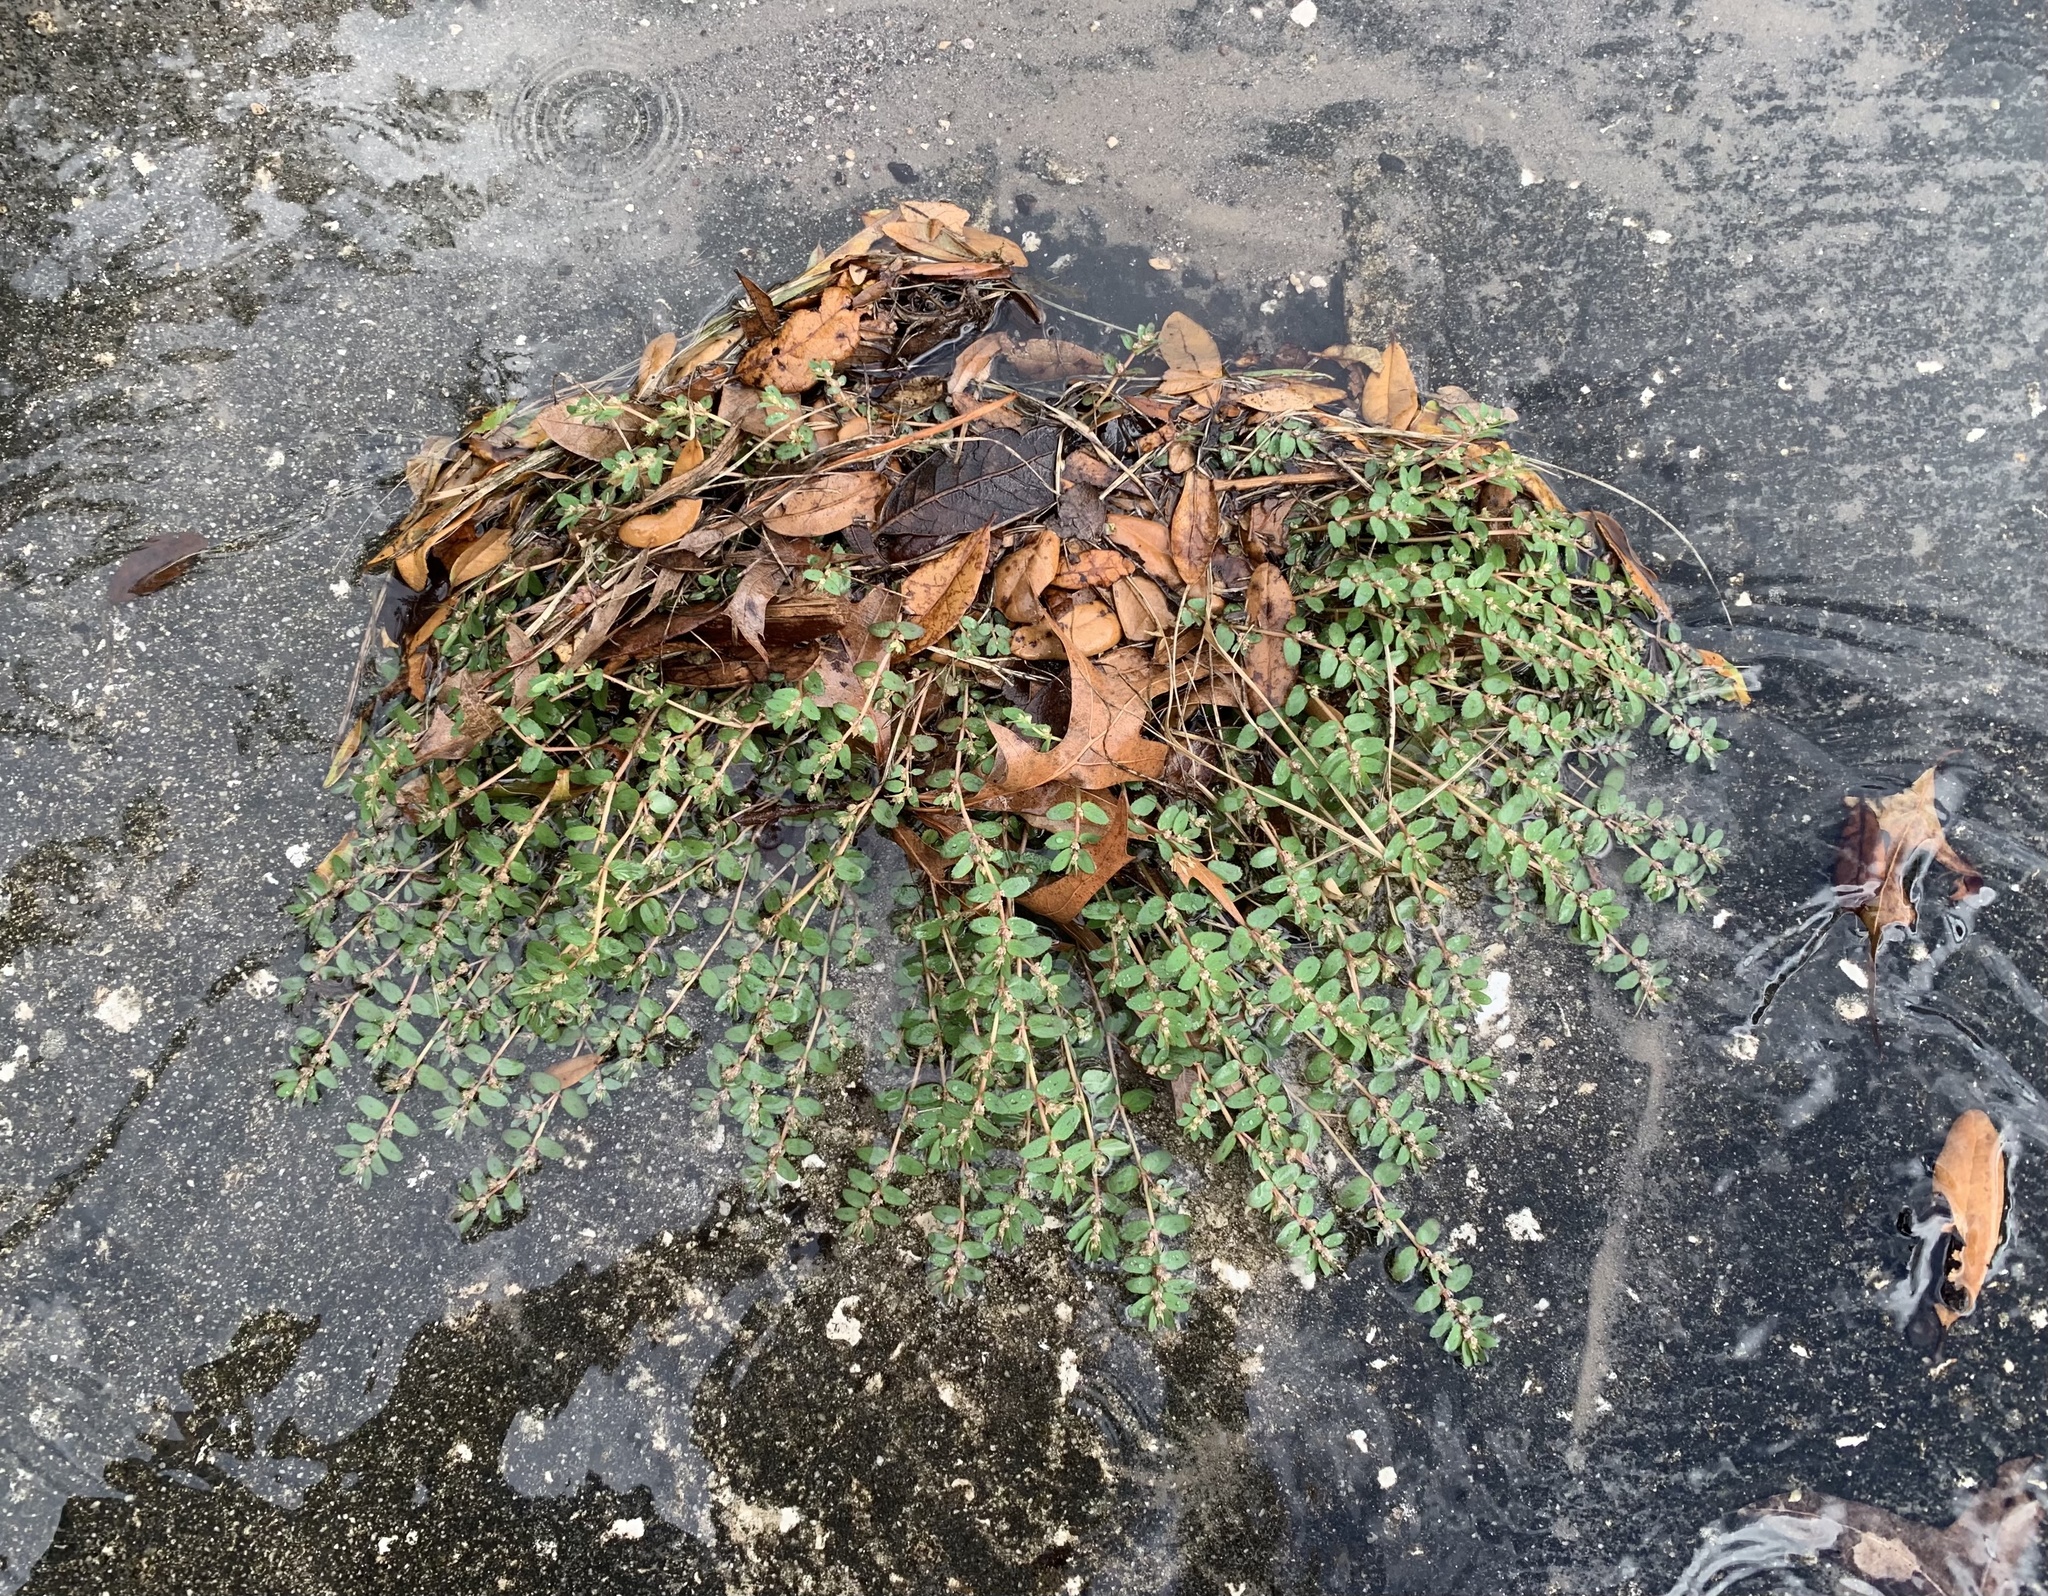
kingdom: Plantae
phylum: Tracheophyta
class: Magnoliopsida
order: Malpighiales
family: Euphorbiaceae
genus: Euphorbia
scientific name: Euphorbia thymifolia
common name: Gulf sandmat
